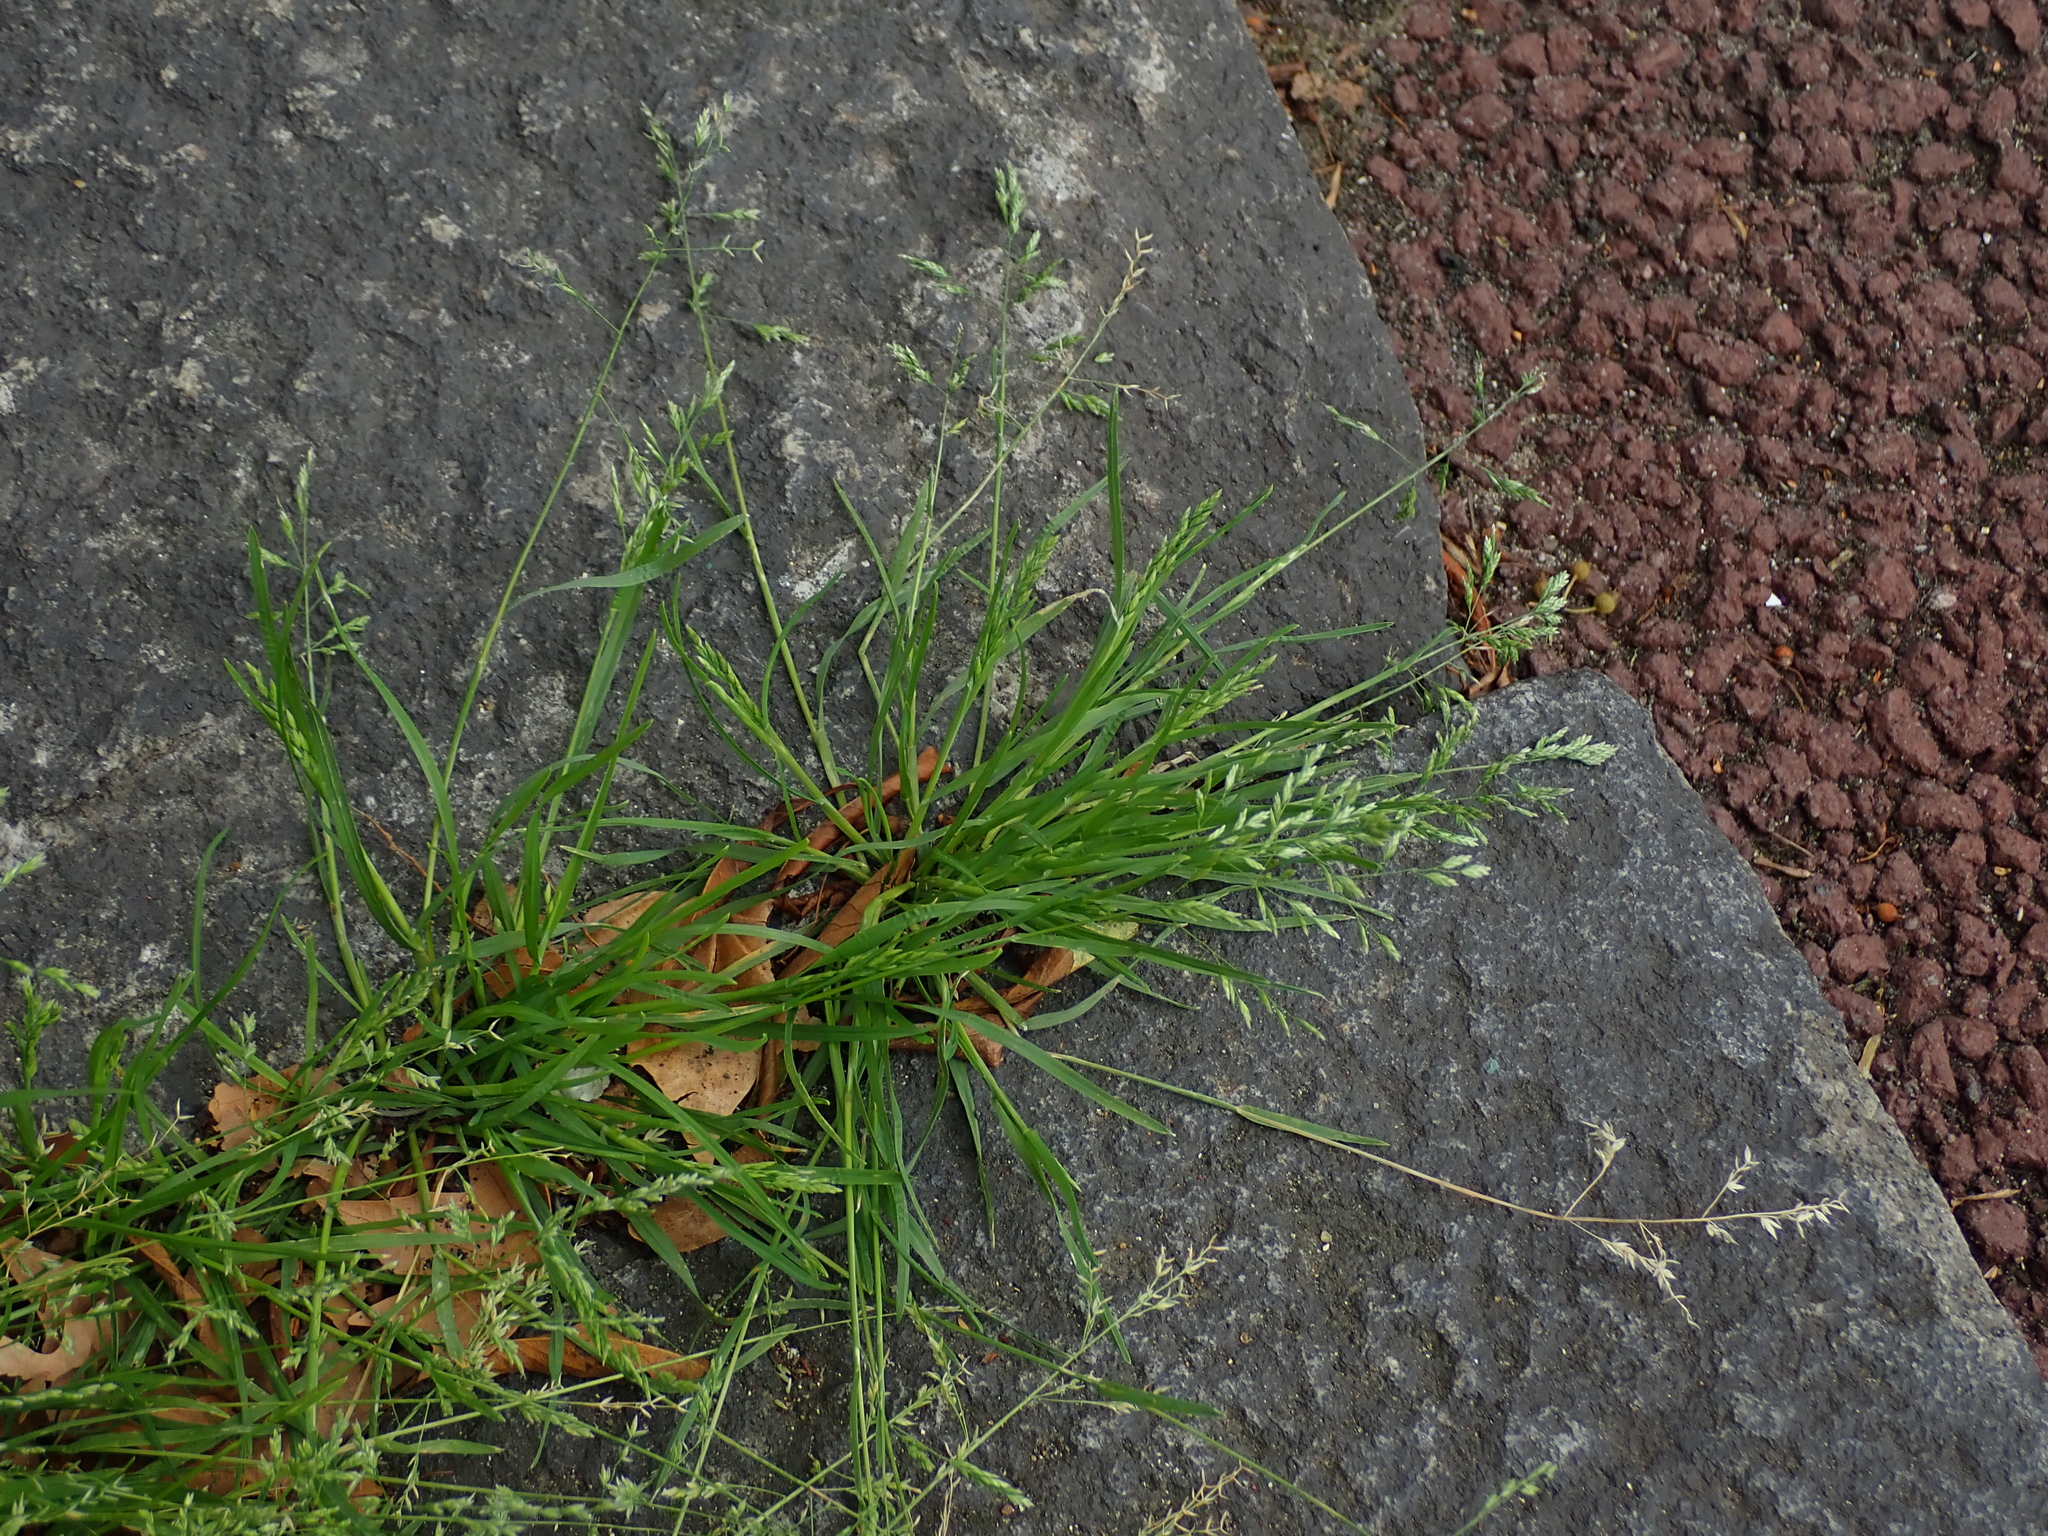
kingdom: Plantae
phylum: Tracheophyta
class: Liliopsida
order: Poales
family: Poaceae
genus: Poa
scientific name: Poa annua
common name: Annual bluegrass
